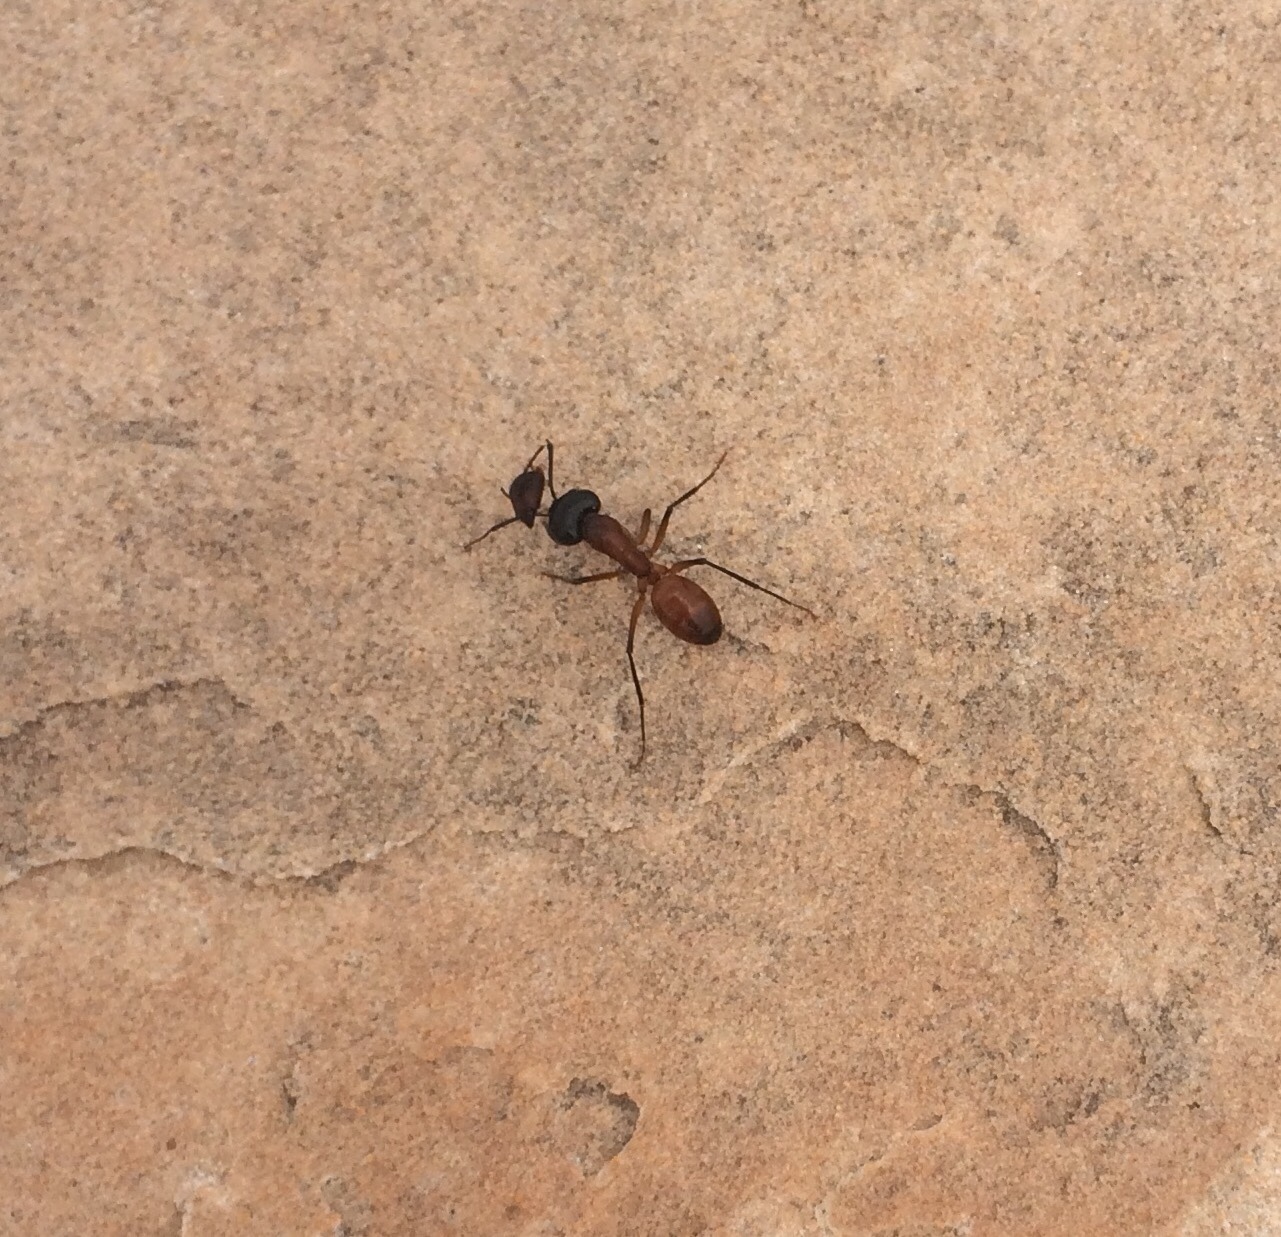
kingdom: Animalia
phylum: Arthropoda
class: Insecta
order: Hymenoptera
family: Formicidae
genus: Camponotus
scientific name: Camponotus ocreatus
